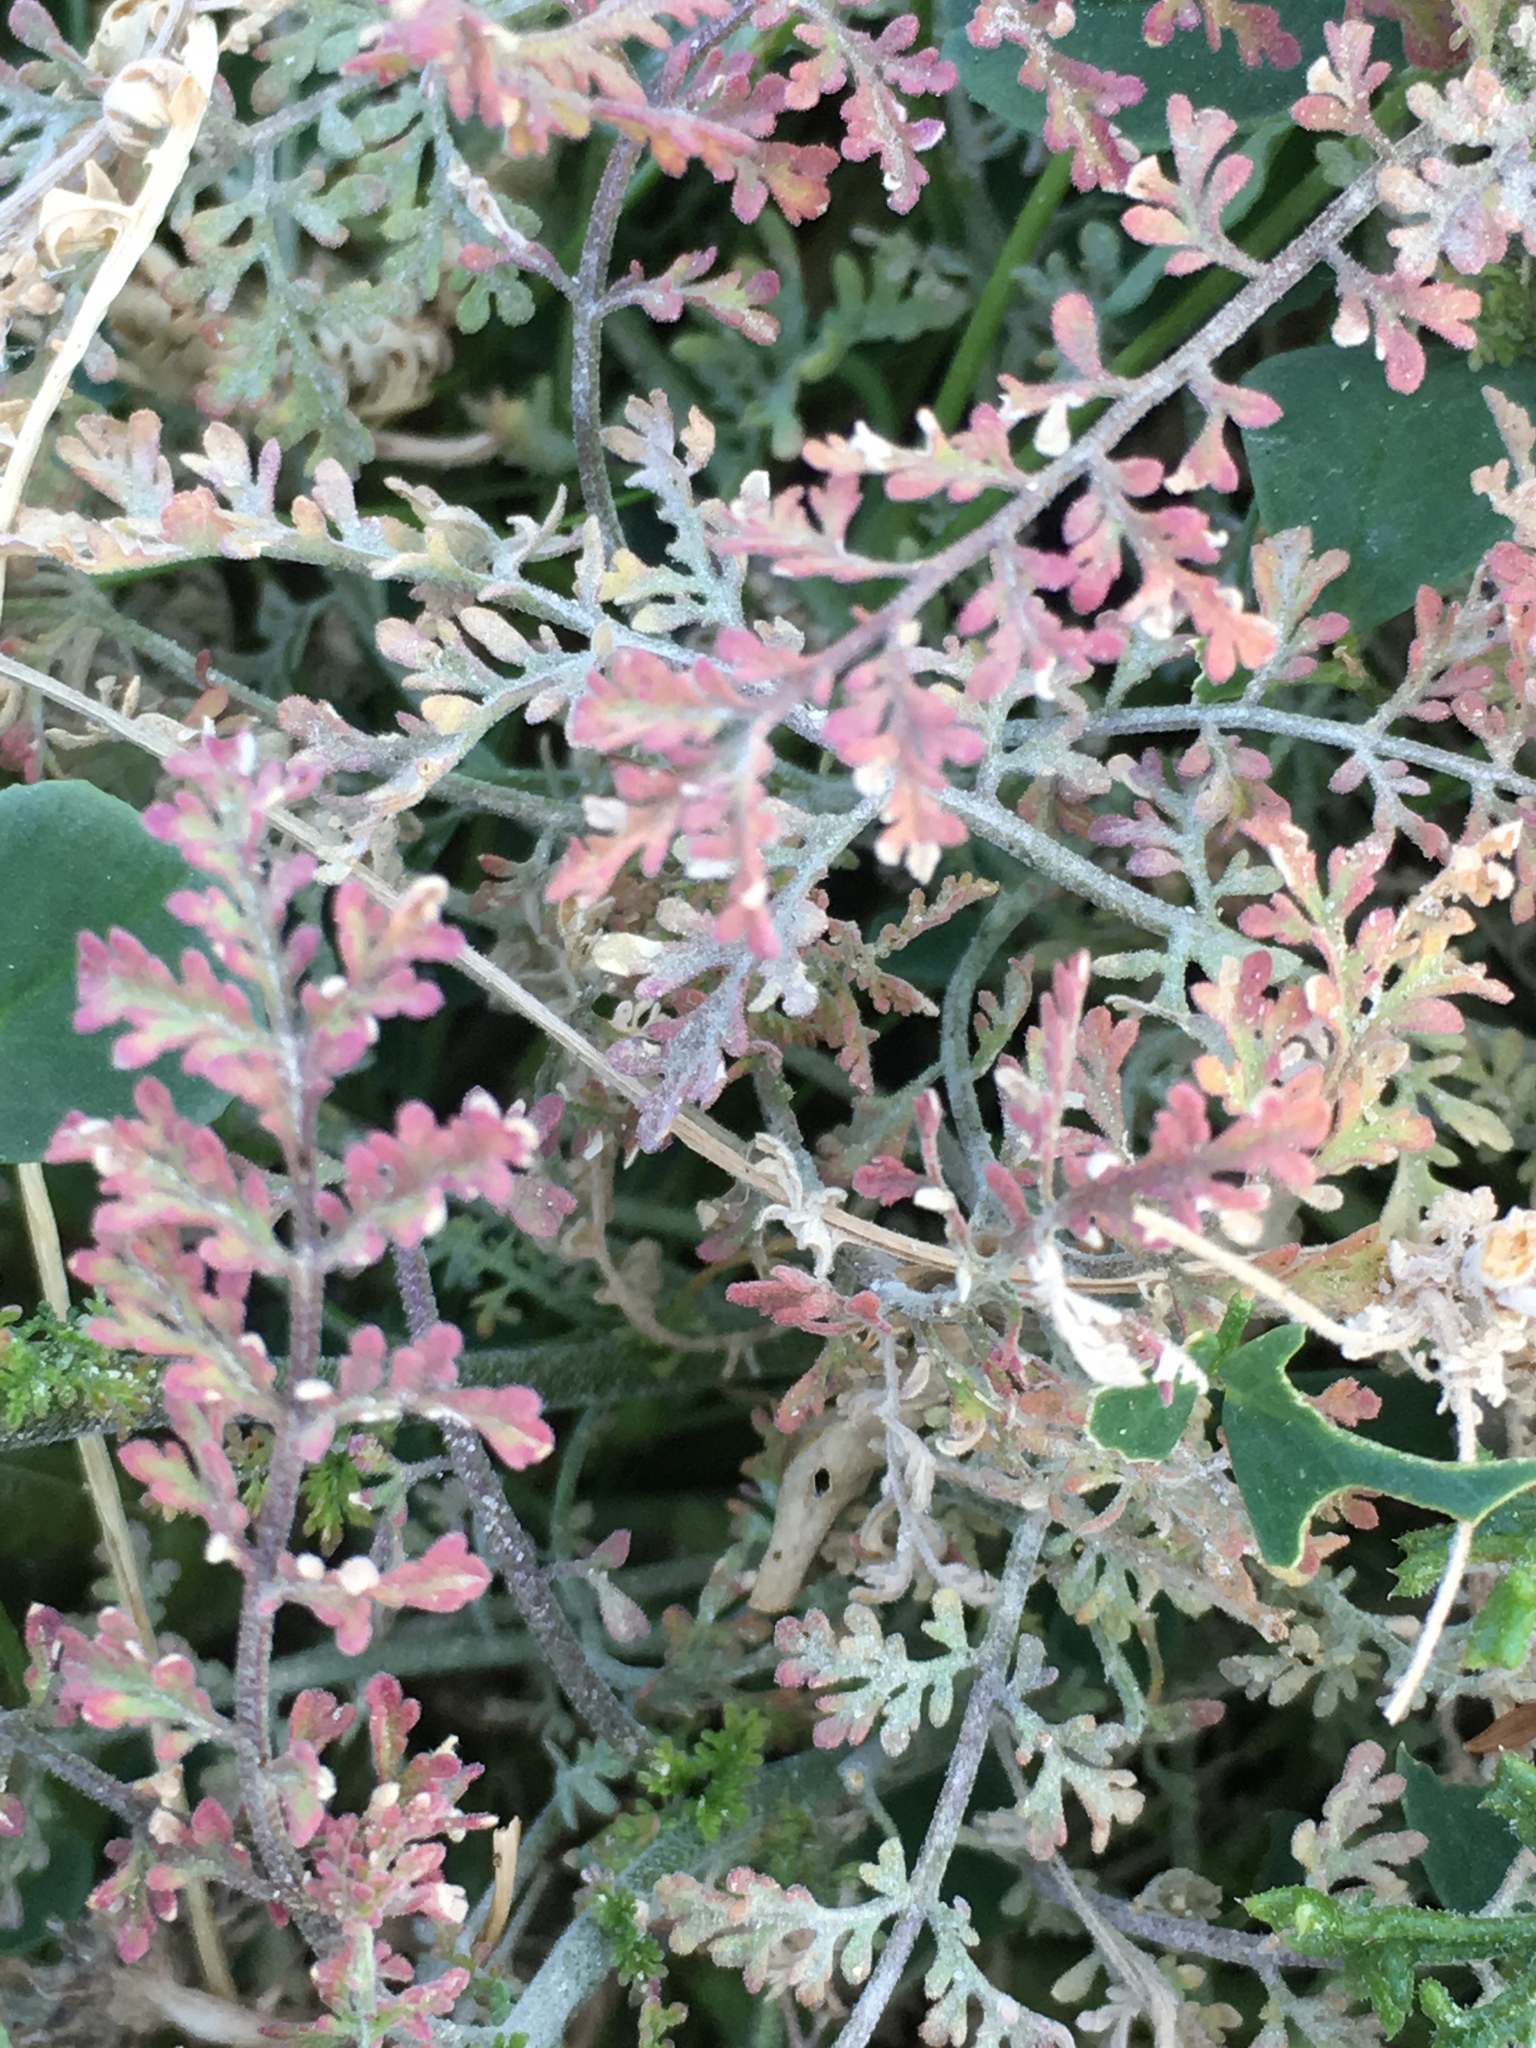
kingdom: Plantae
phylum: Tracheophyta
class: Magnoliopsida
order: Brassicales
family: Brassicaceae
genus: Descurainia
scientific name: Descurainia pinnata
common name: Western tansy mustard
